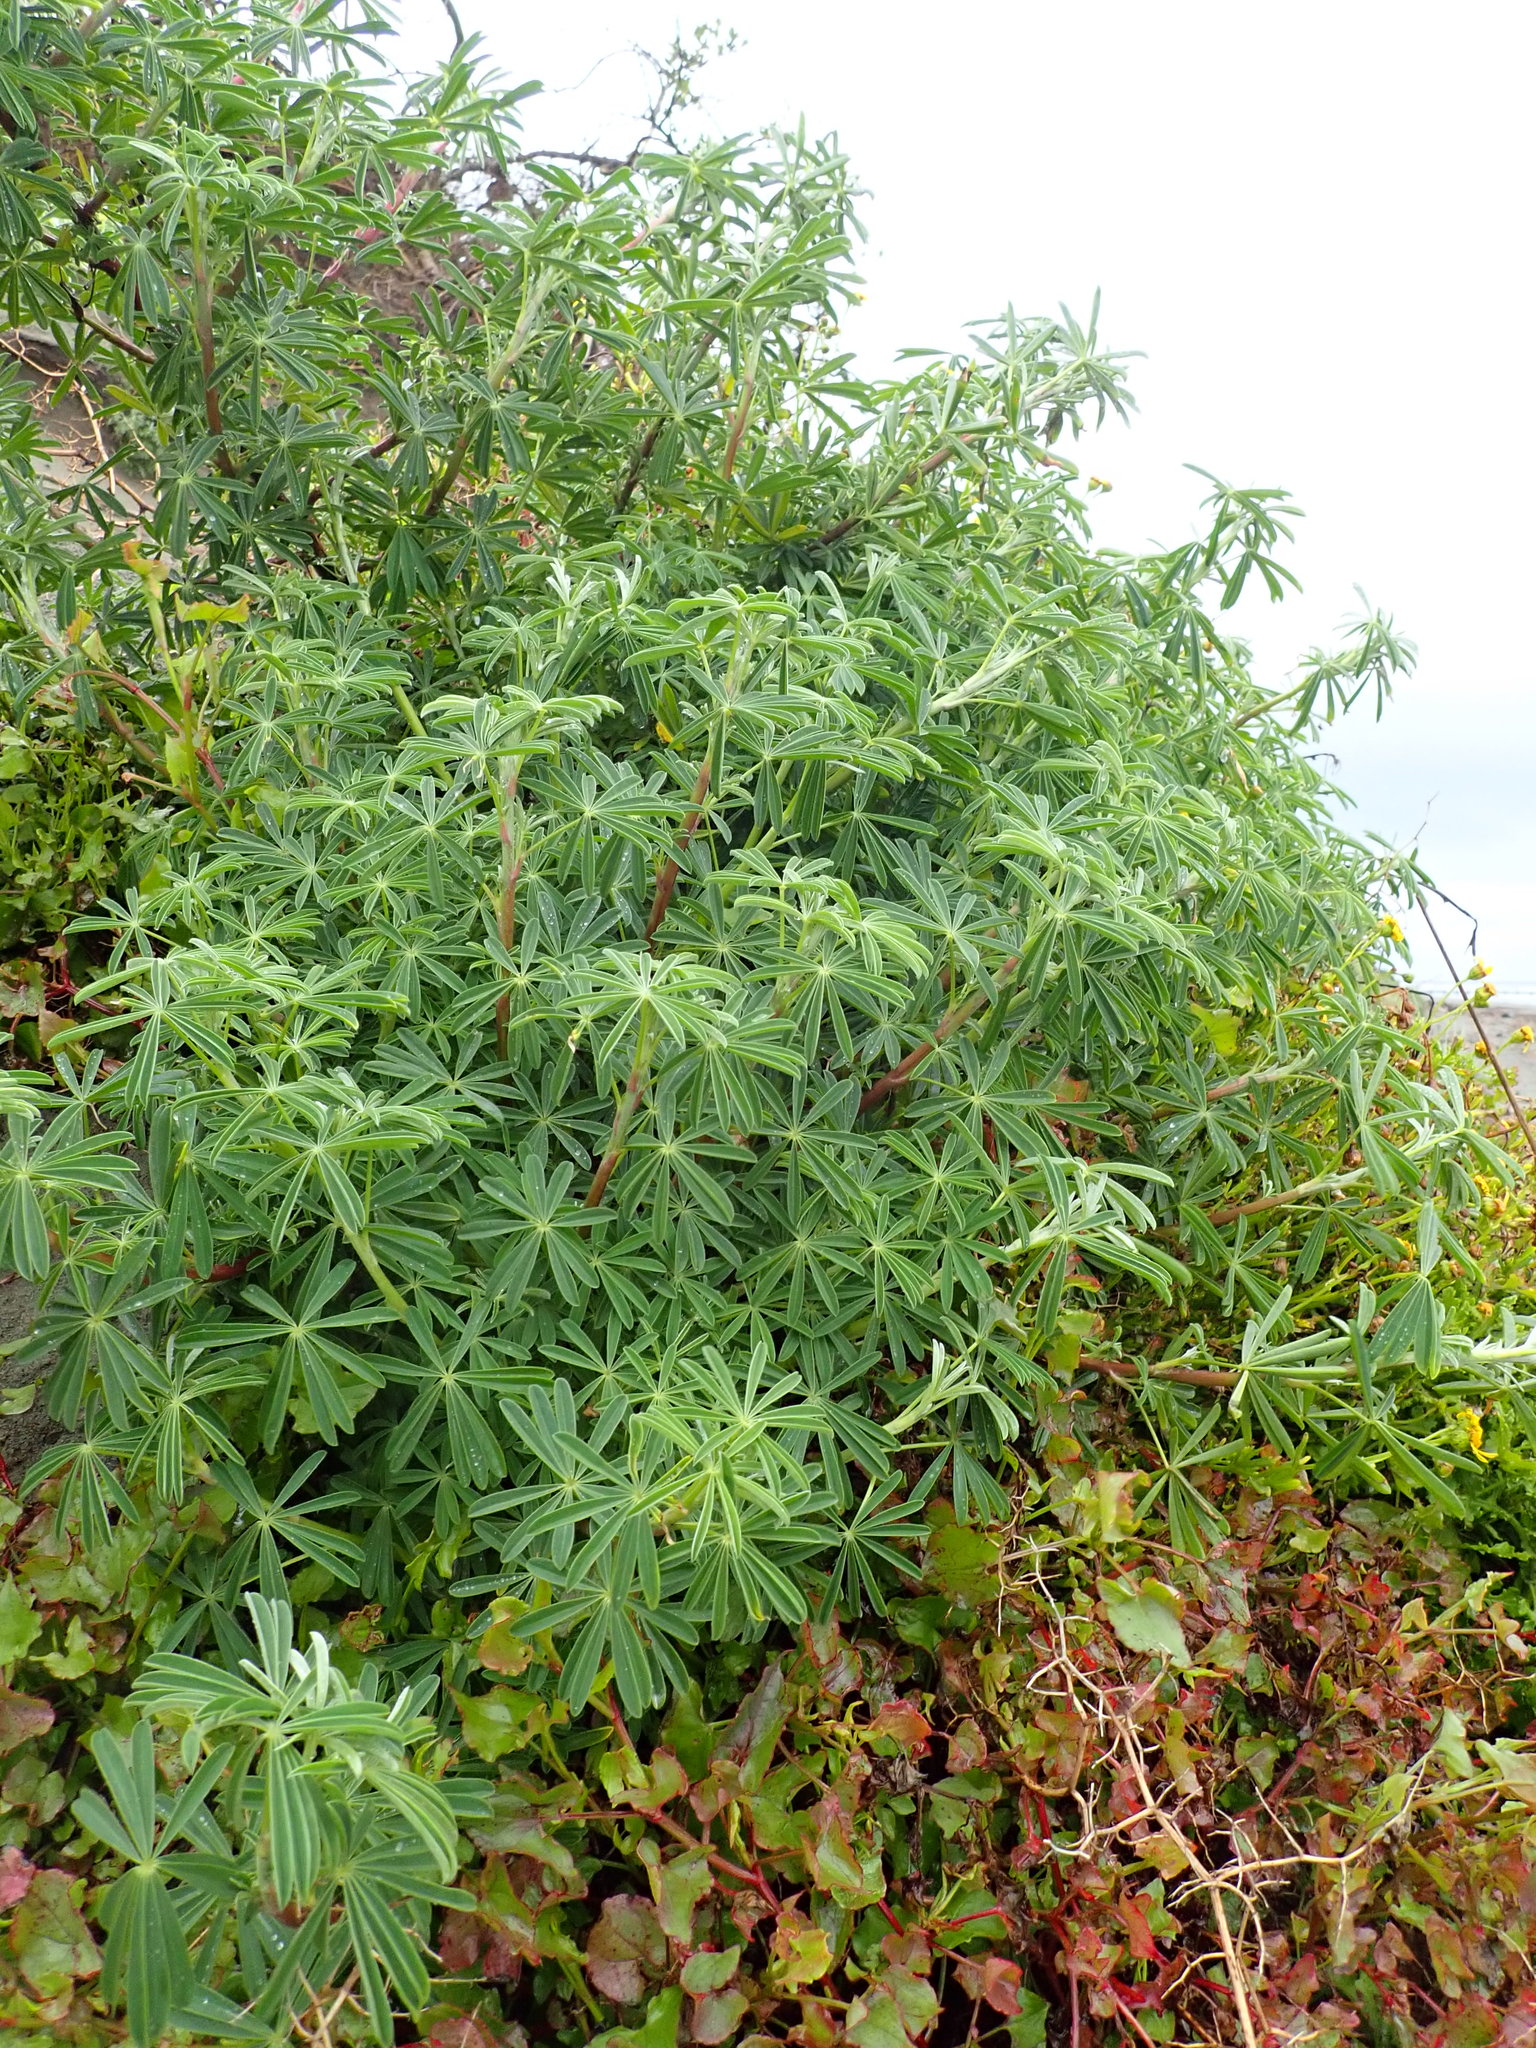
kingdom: Plantae
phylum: Tracheophyta
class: Magnoliopsida
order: Fabales
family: Fabaceae
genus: Lupinus
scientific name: Lupinus arboreus
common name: Yellow bush lupine
